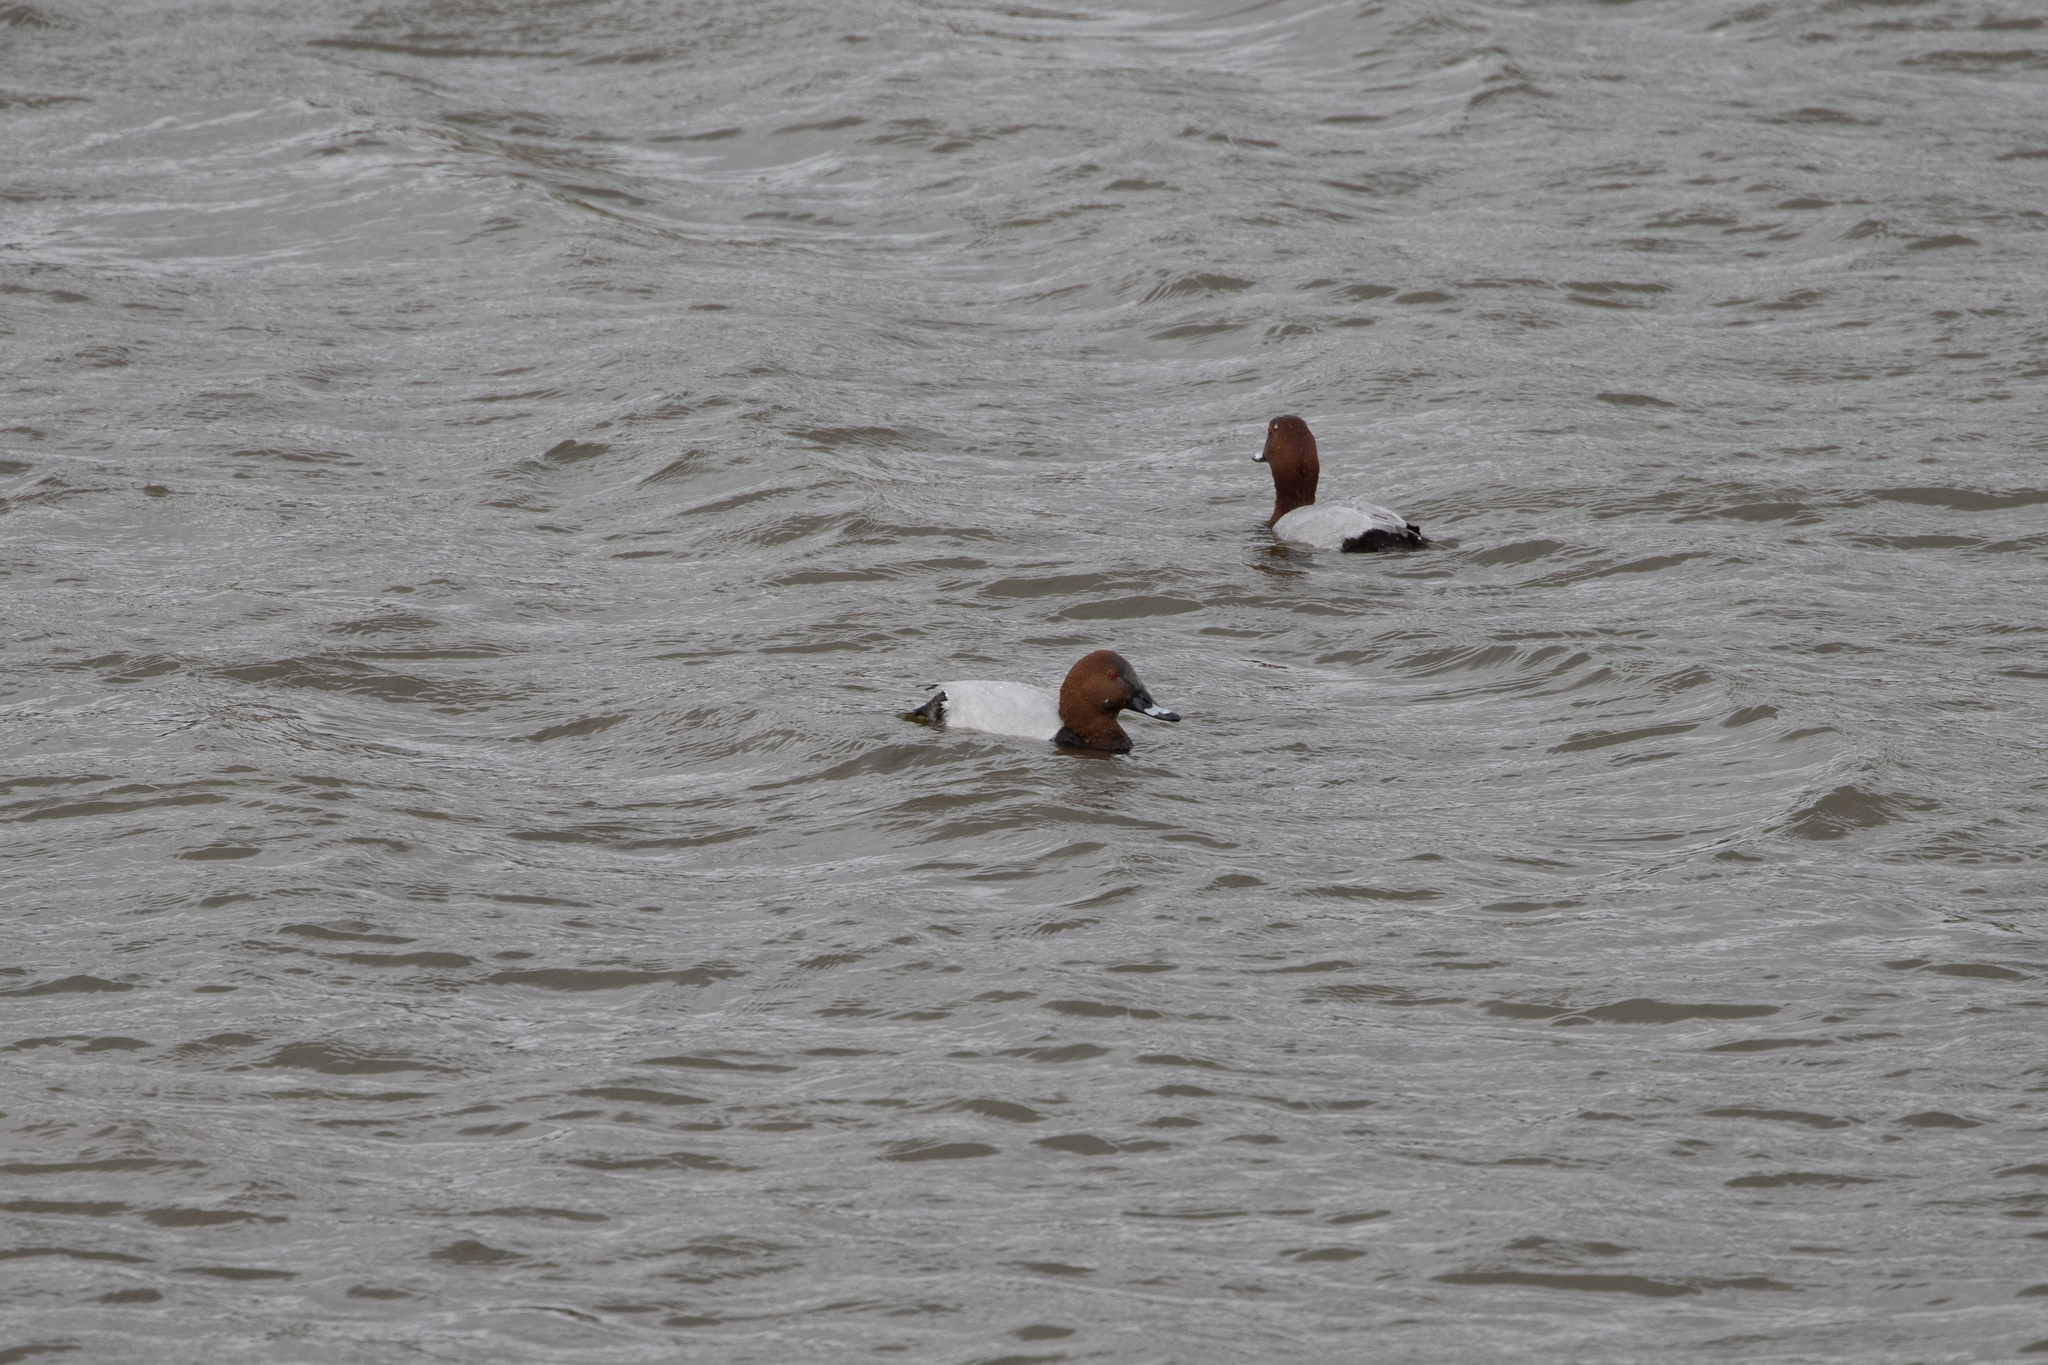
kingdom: Animalia
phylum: Chordata
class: Aves
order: Anseriformes
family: Anatidae
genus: Aythya
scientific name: Aythya ferina
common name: Common pochard
